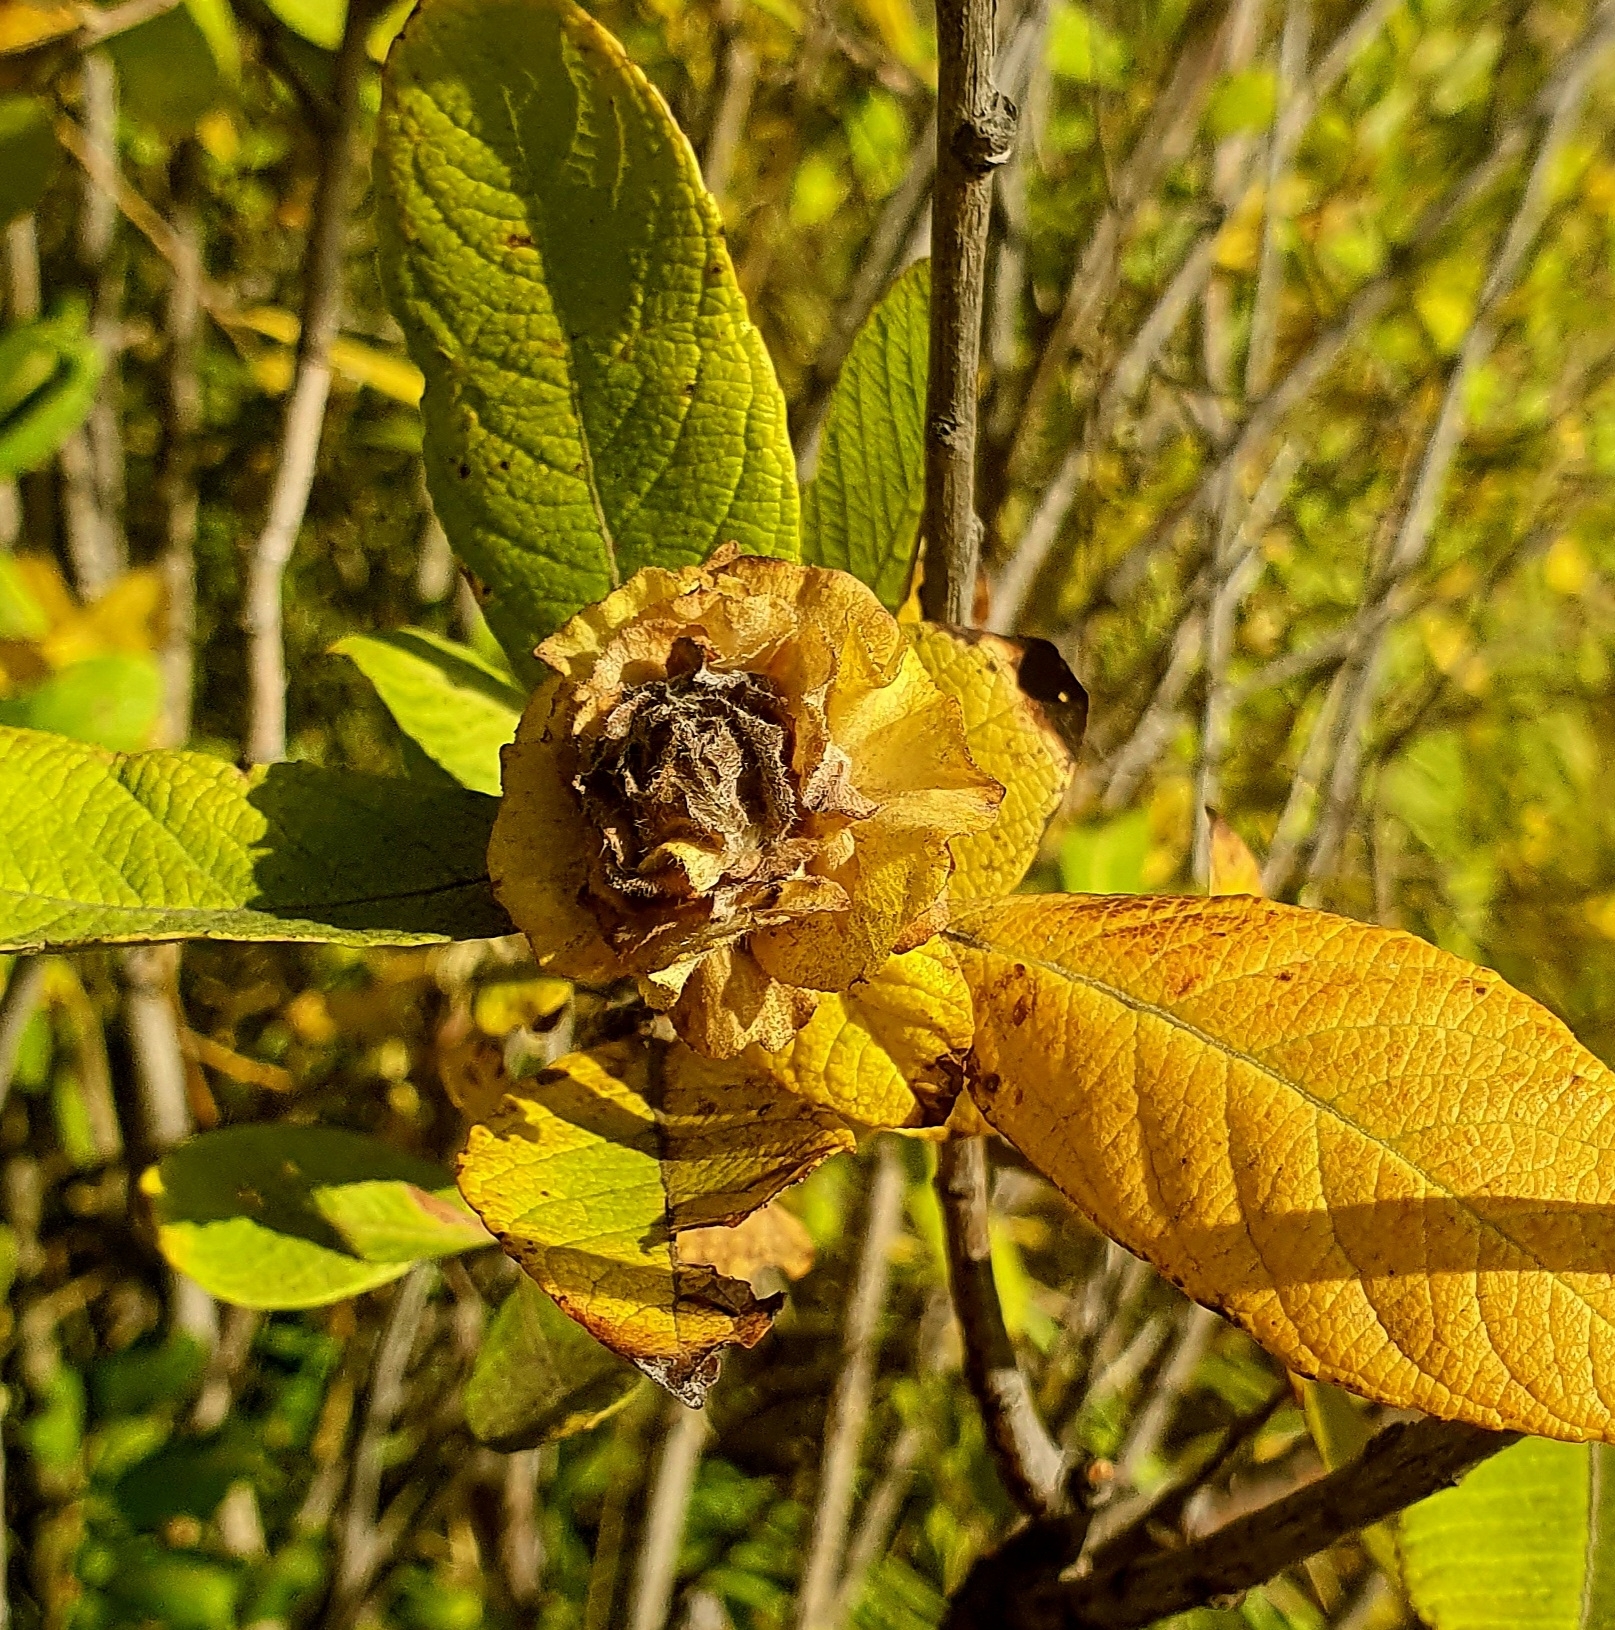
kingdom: Animalia
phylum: Arthropoda
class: Insecta
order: Diptera
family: Cecidomyiidae
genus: Rabdophaga
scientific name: Rabdophaga rosaria
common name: Willow rose gall midge
